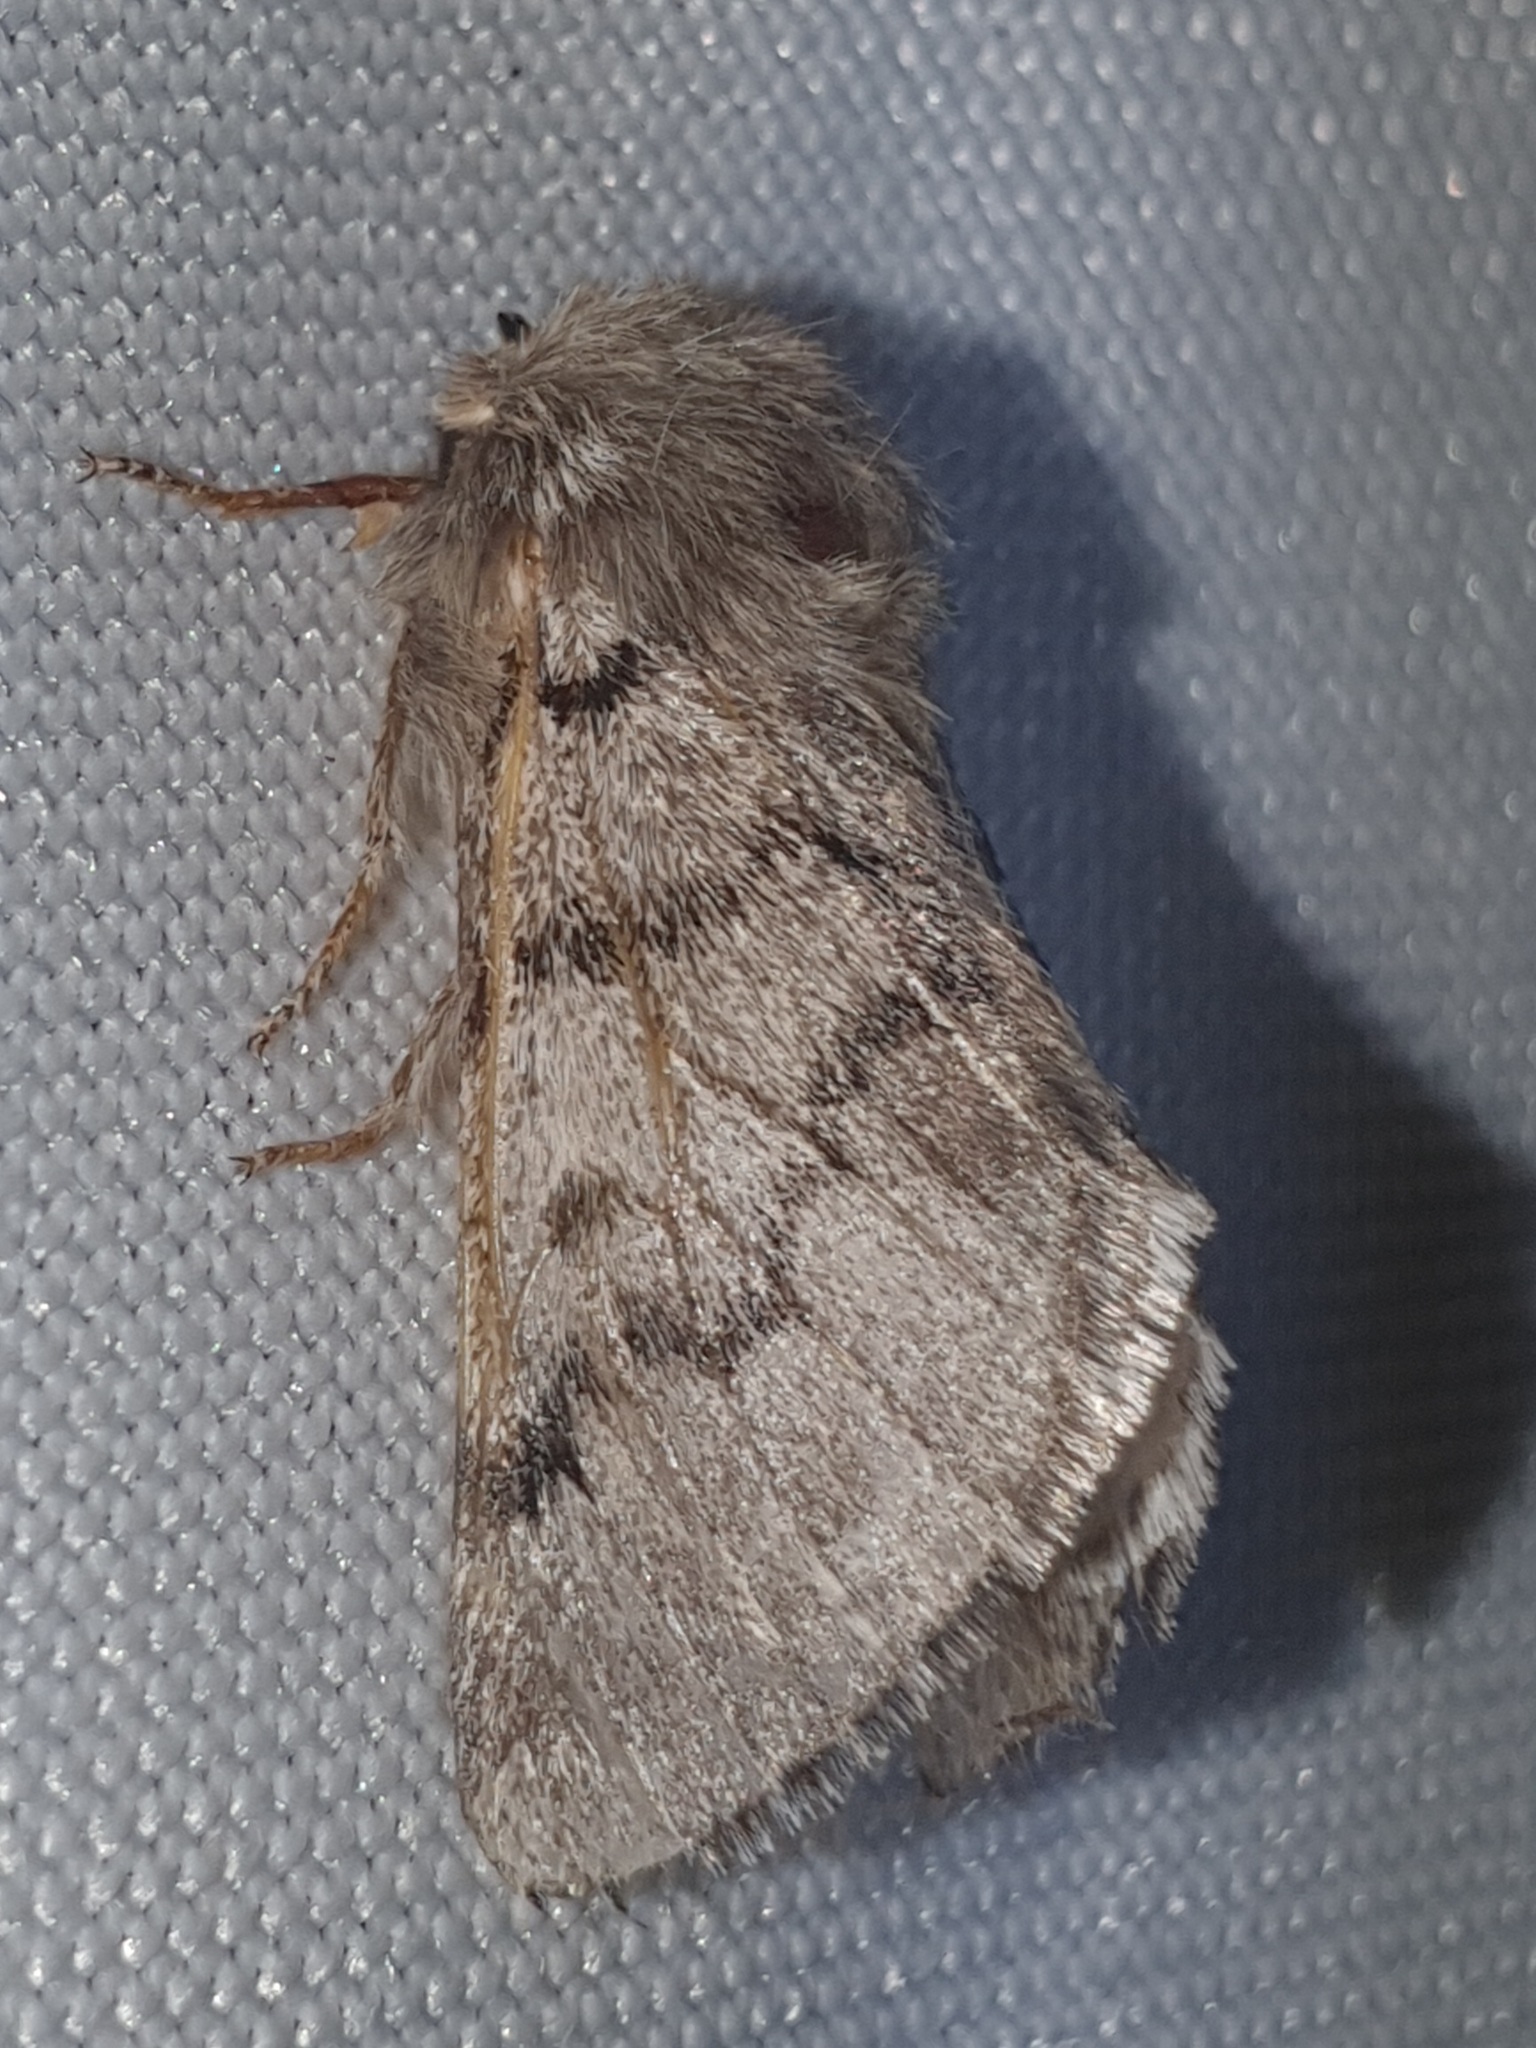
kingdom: Animalia
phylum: Arthropoda
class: Insecta
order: Lepidoptera
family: Notodontidae
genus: Thaumetopoea
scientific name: Thaumetopoea pityocampa
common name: Pine processionary
